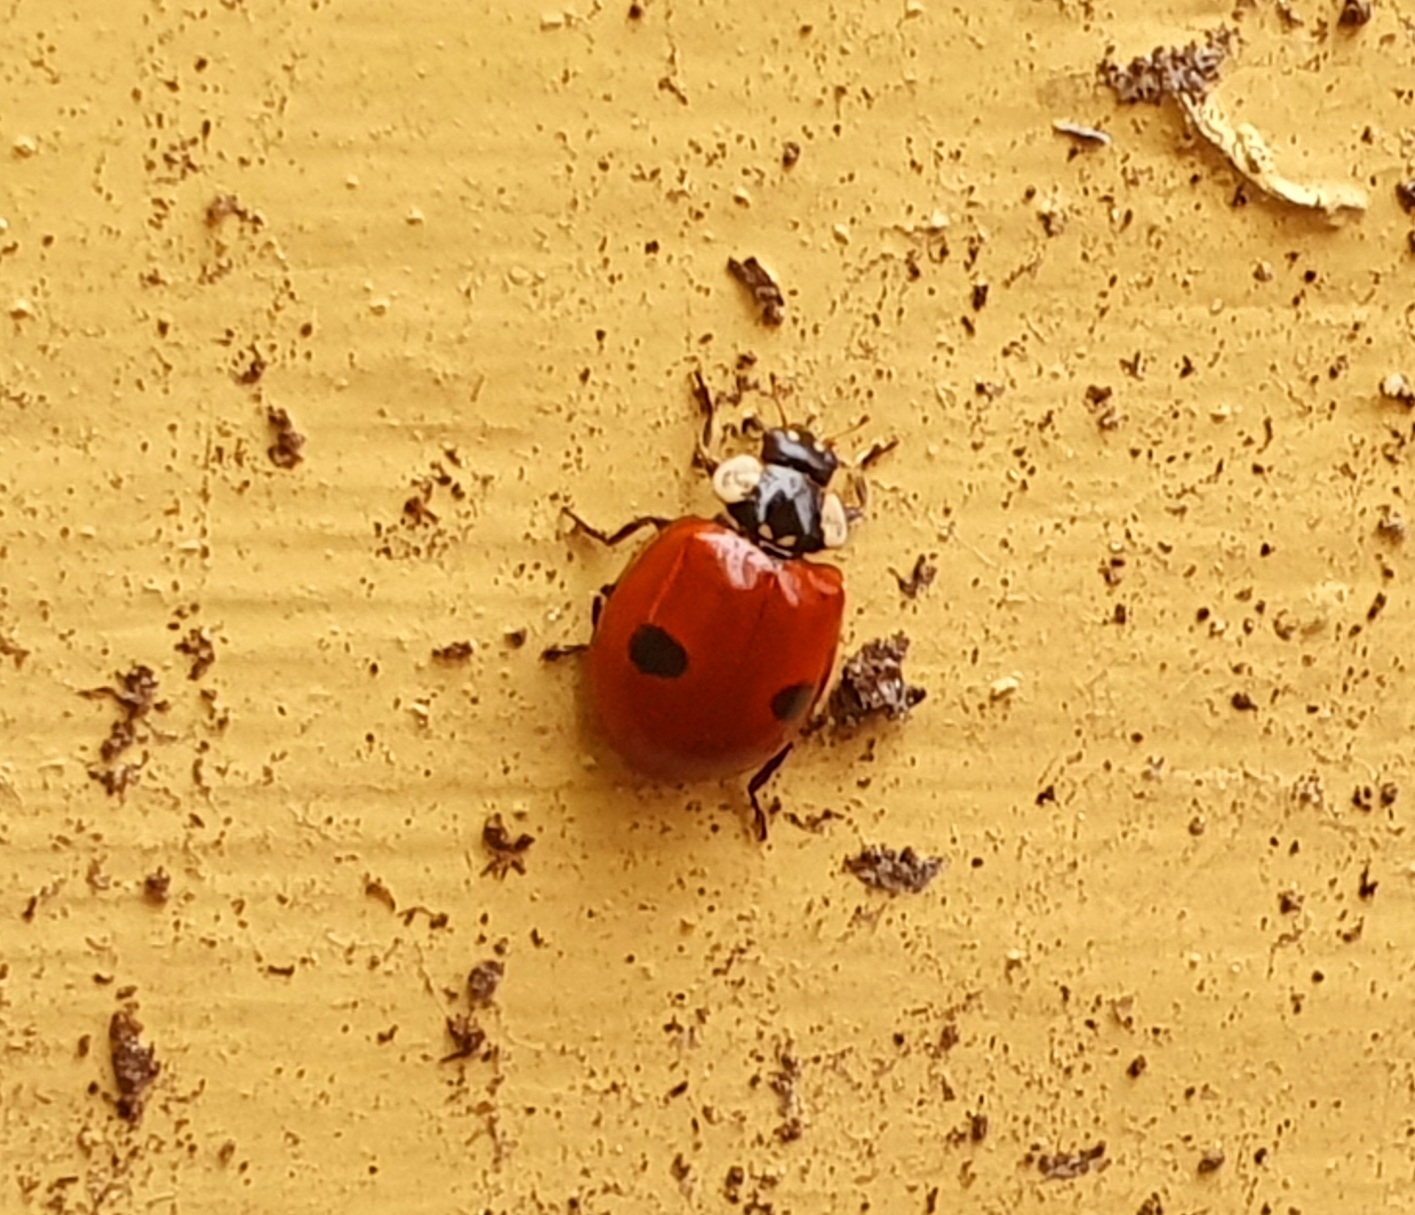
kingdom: Animalia
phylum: Arthropoda
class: Insecta
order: Coleoptera
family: Coccinellidae
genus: Adalia
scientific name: Adalia bipunctata
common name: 2-spot ladybird
